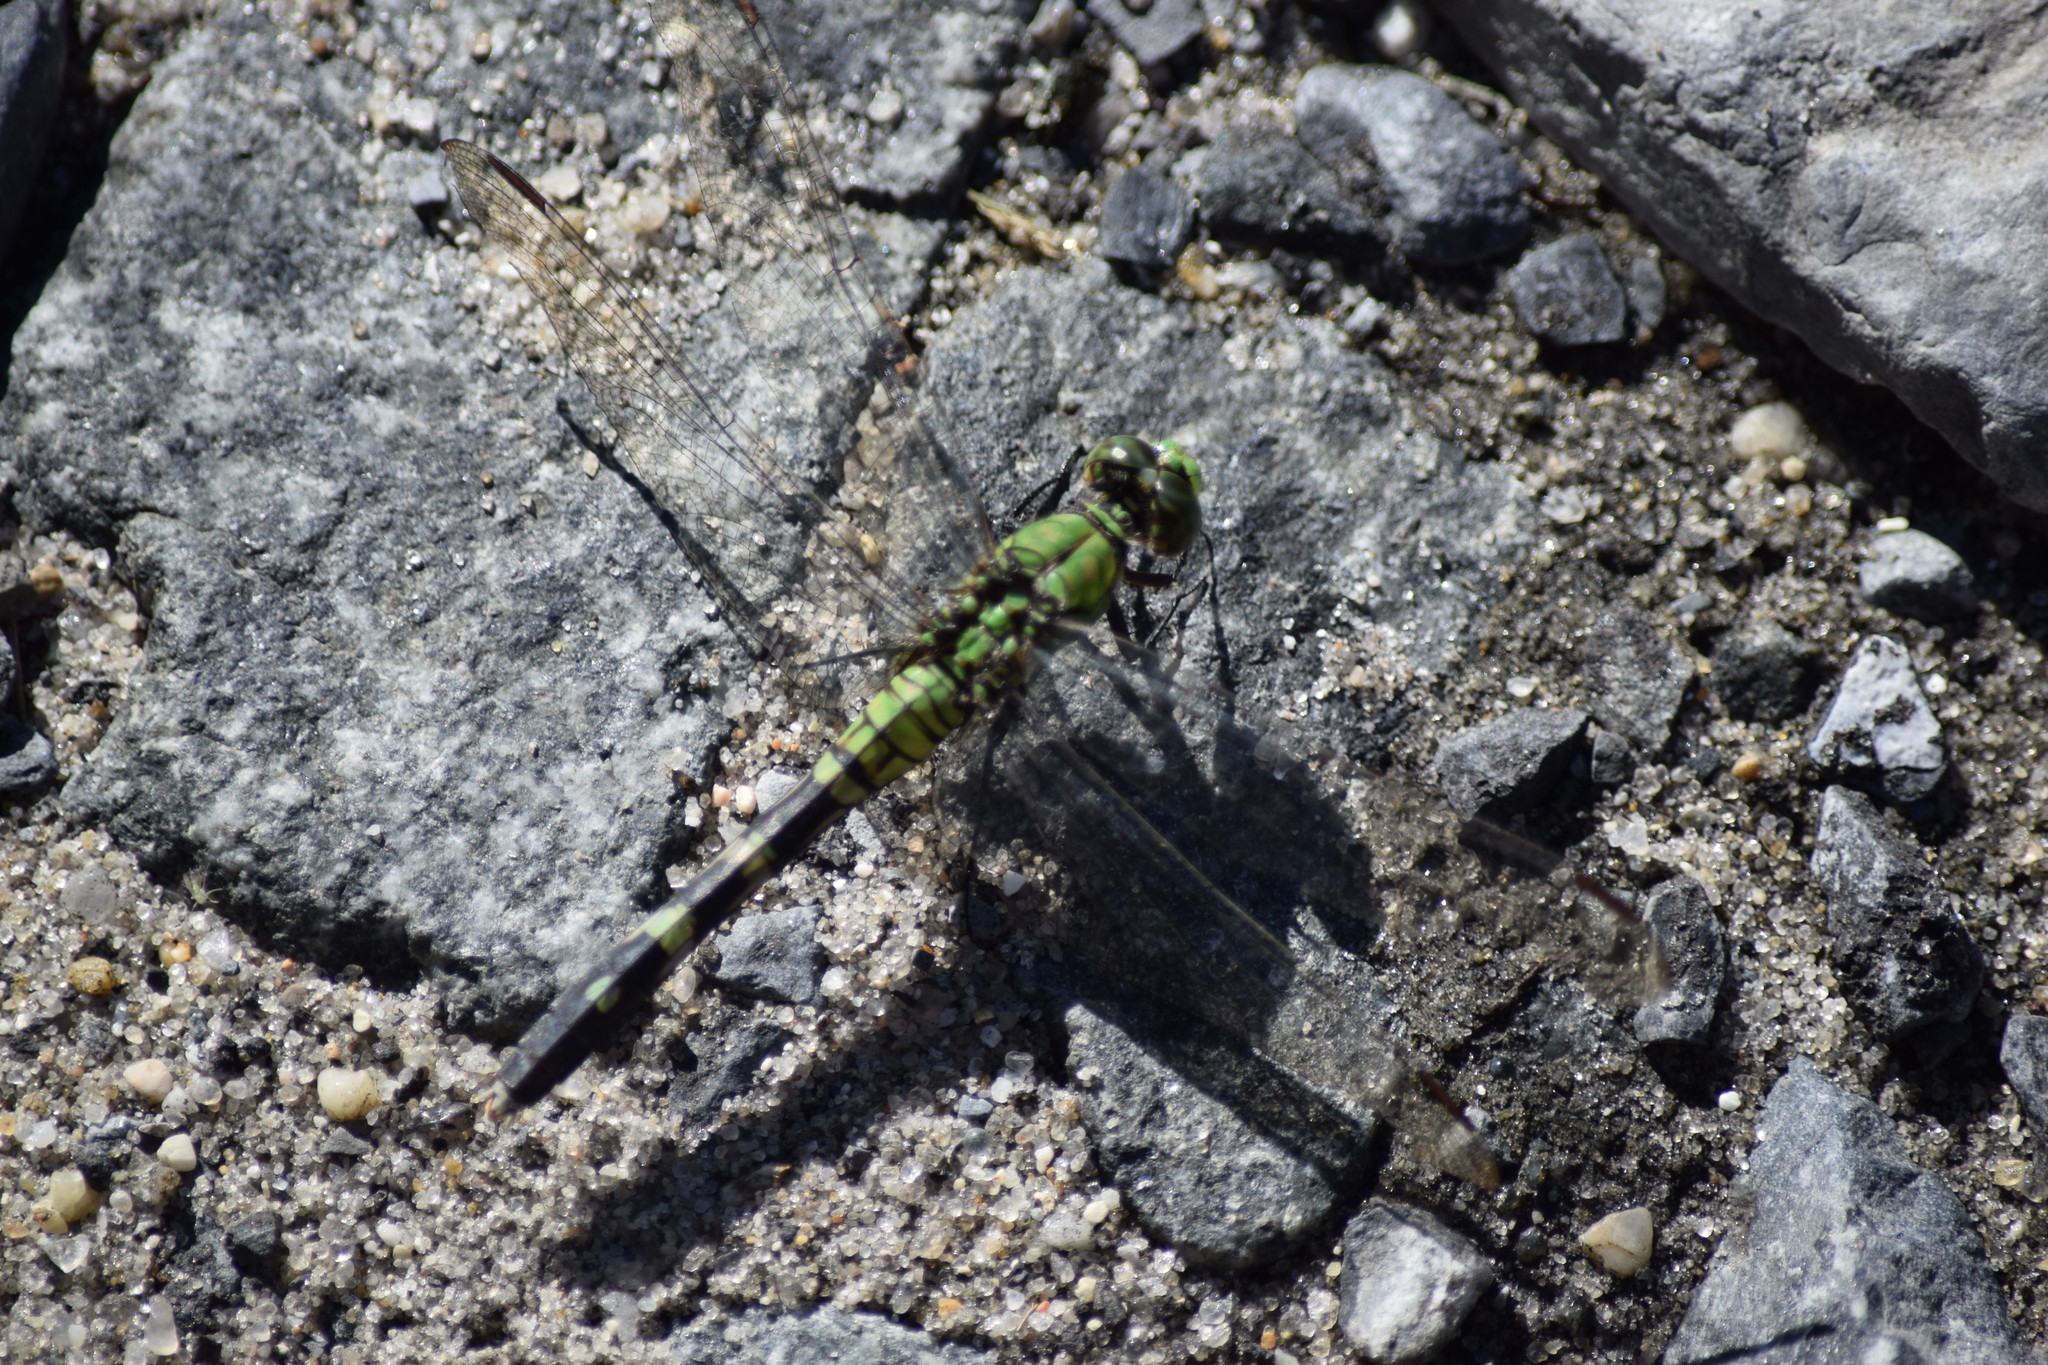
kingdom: Animalia
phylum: Arthropoda
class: Insecta
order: Odonata
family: Libellulidae
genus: Erythemis
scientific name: Erythemis simplicicollis
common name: Eastern pondhawk
